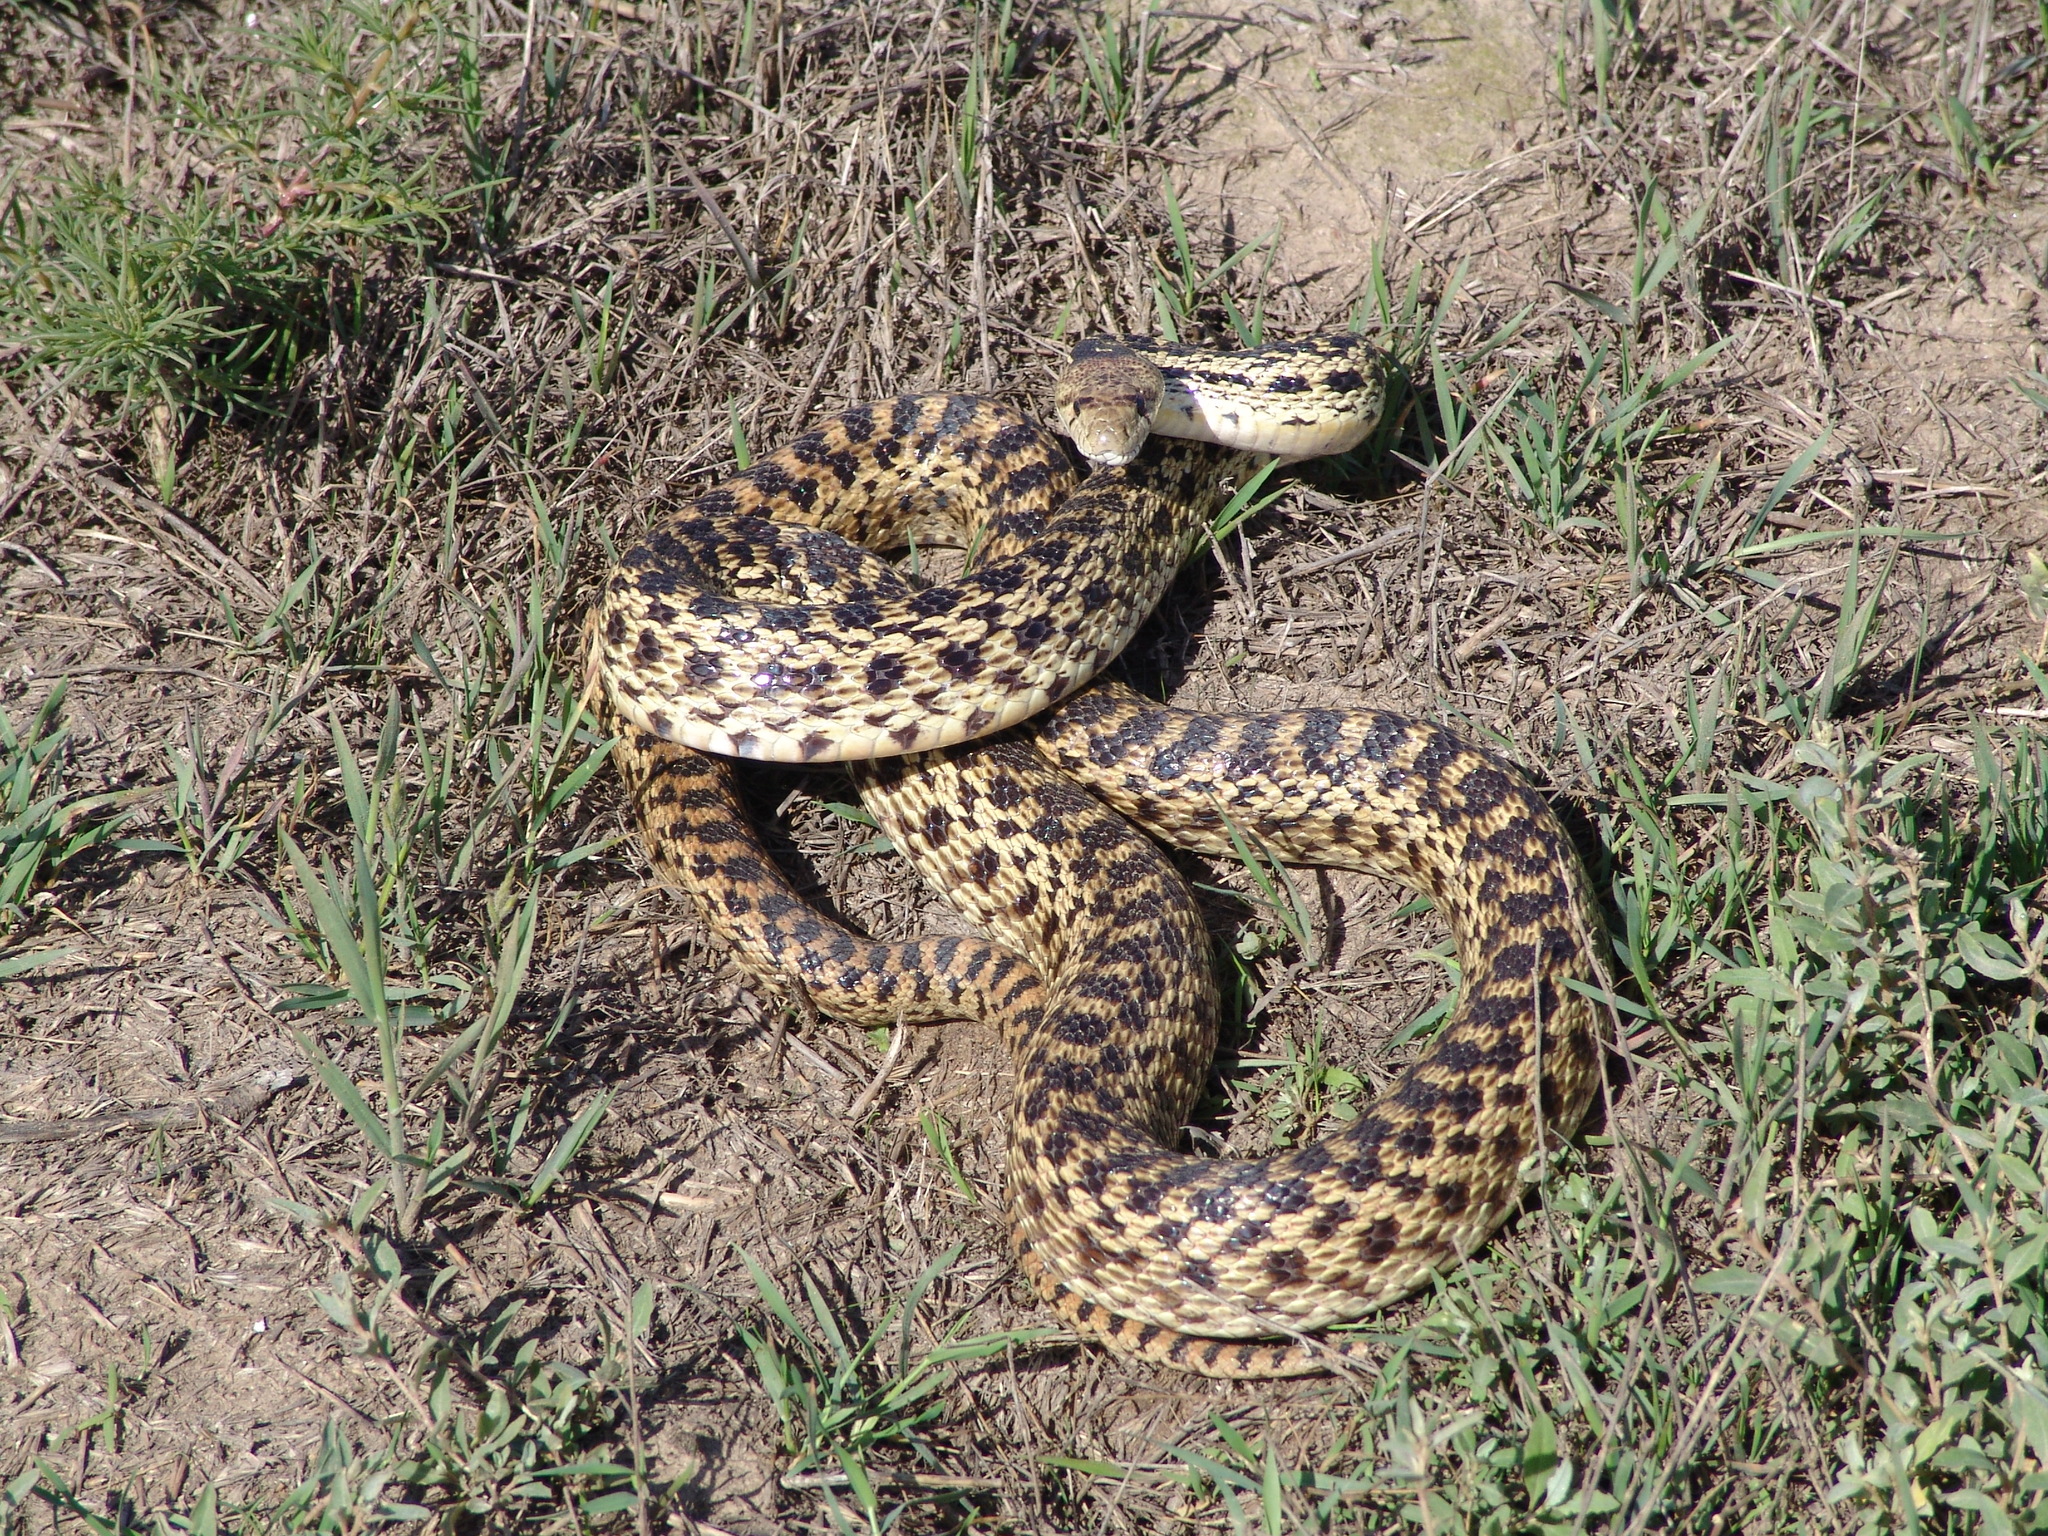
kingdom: Animalia
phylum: Chordata
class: Squamata
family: Colubridae
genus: Pituophis
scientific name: Pituophis catenifer
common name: Gopher snake
